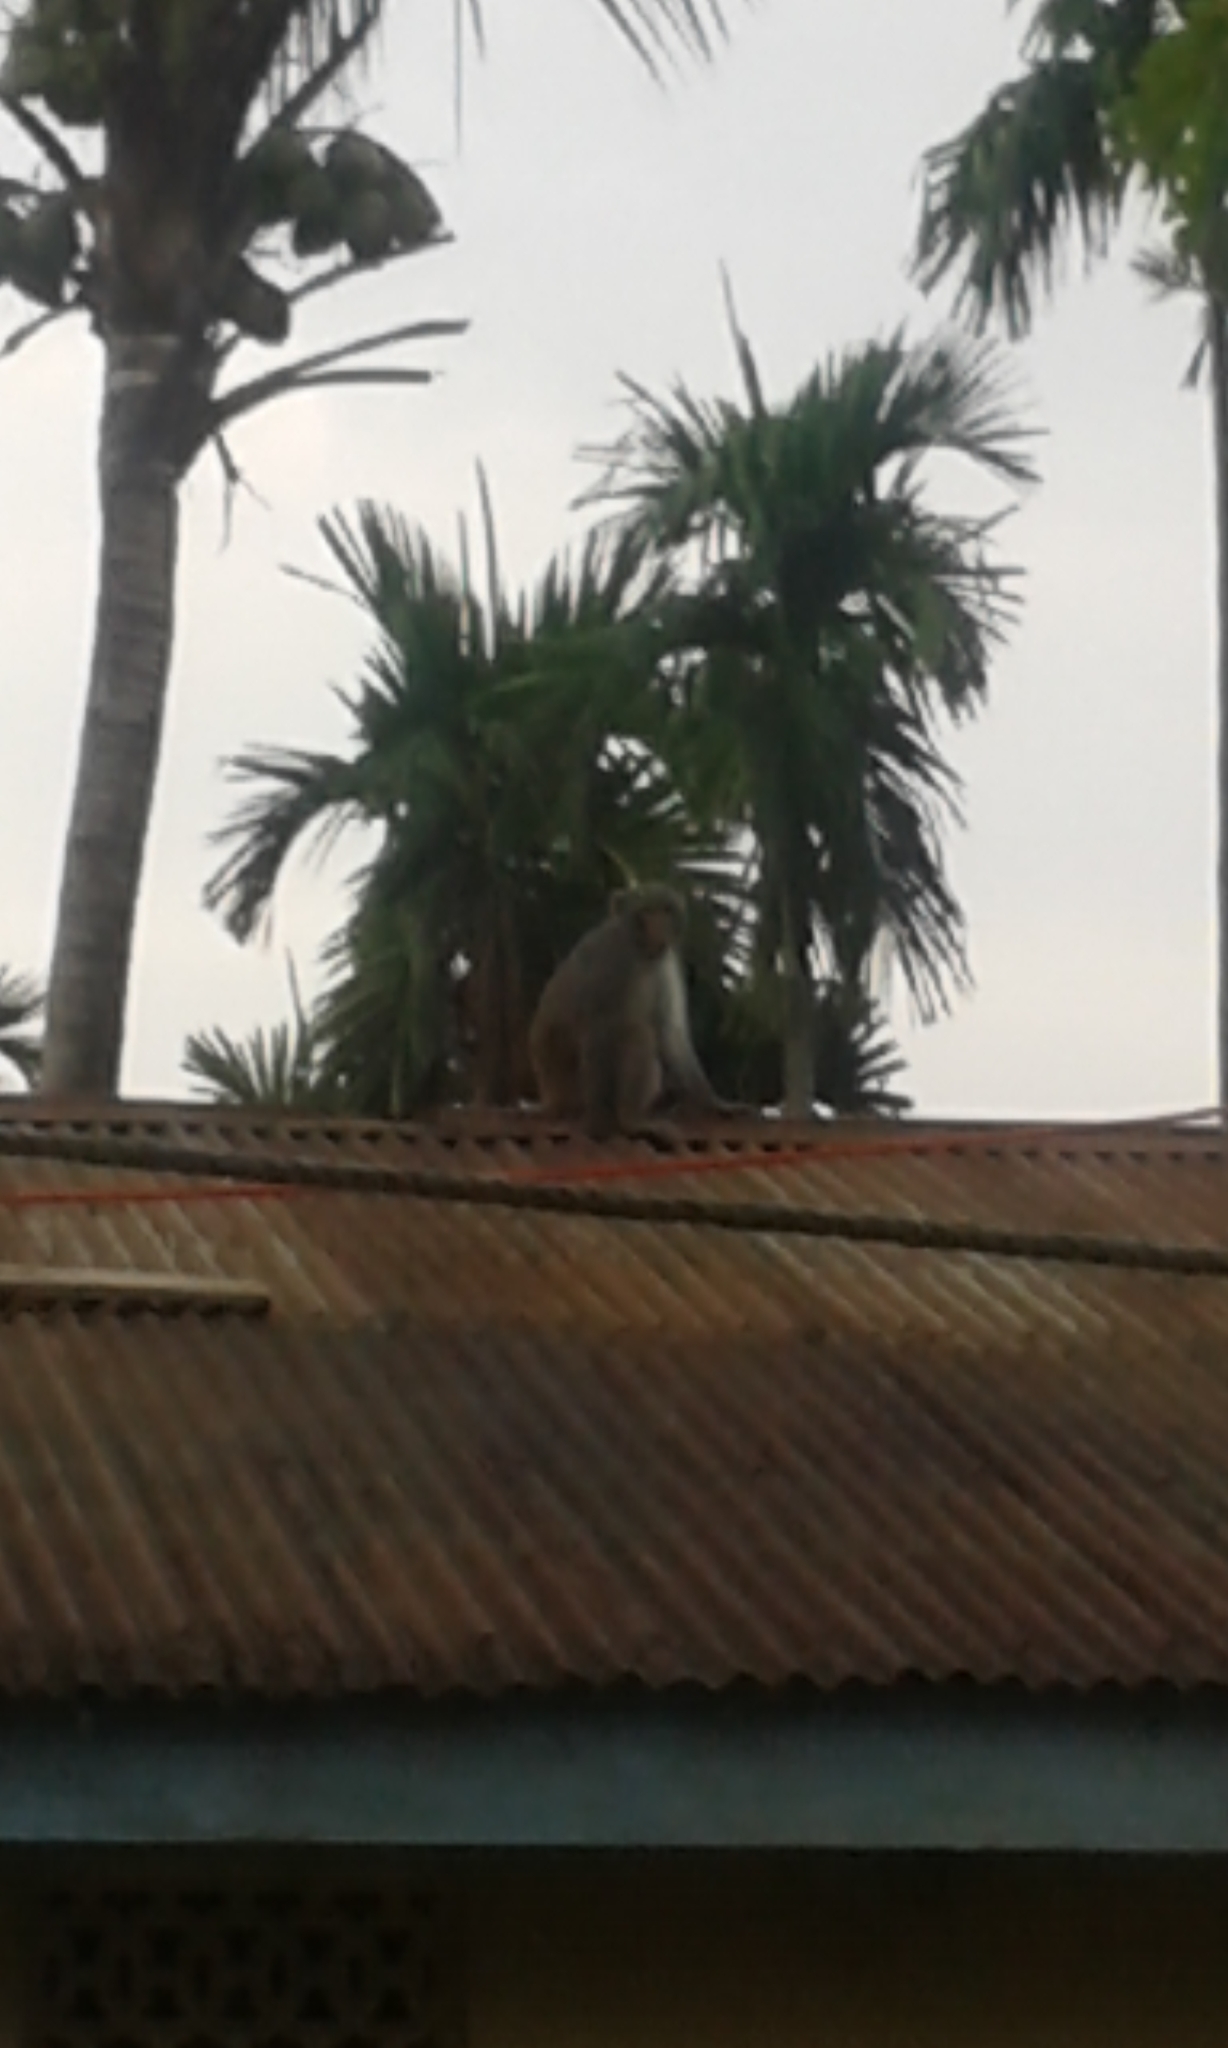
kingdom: Animalia
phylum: Chordata
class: Mammalia
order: Primates
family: Cercopithecidae
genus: Macaca
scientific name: Macaca mulatta
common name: Rhesus monkey
